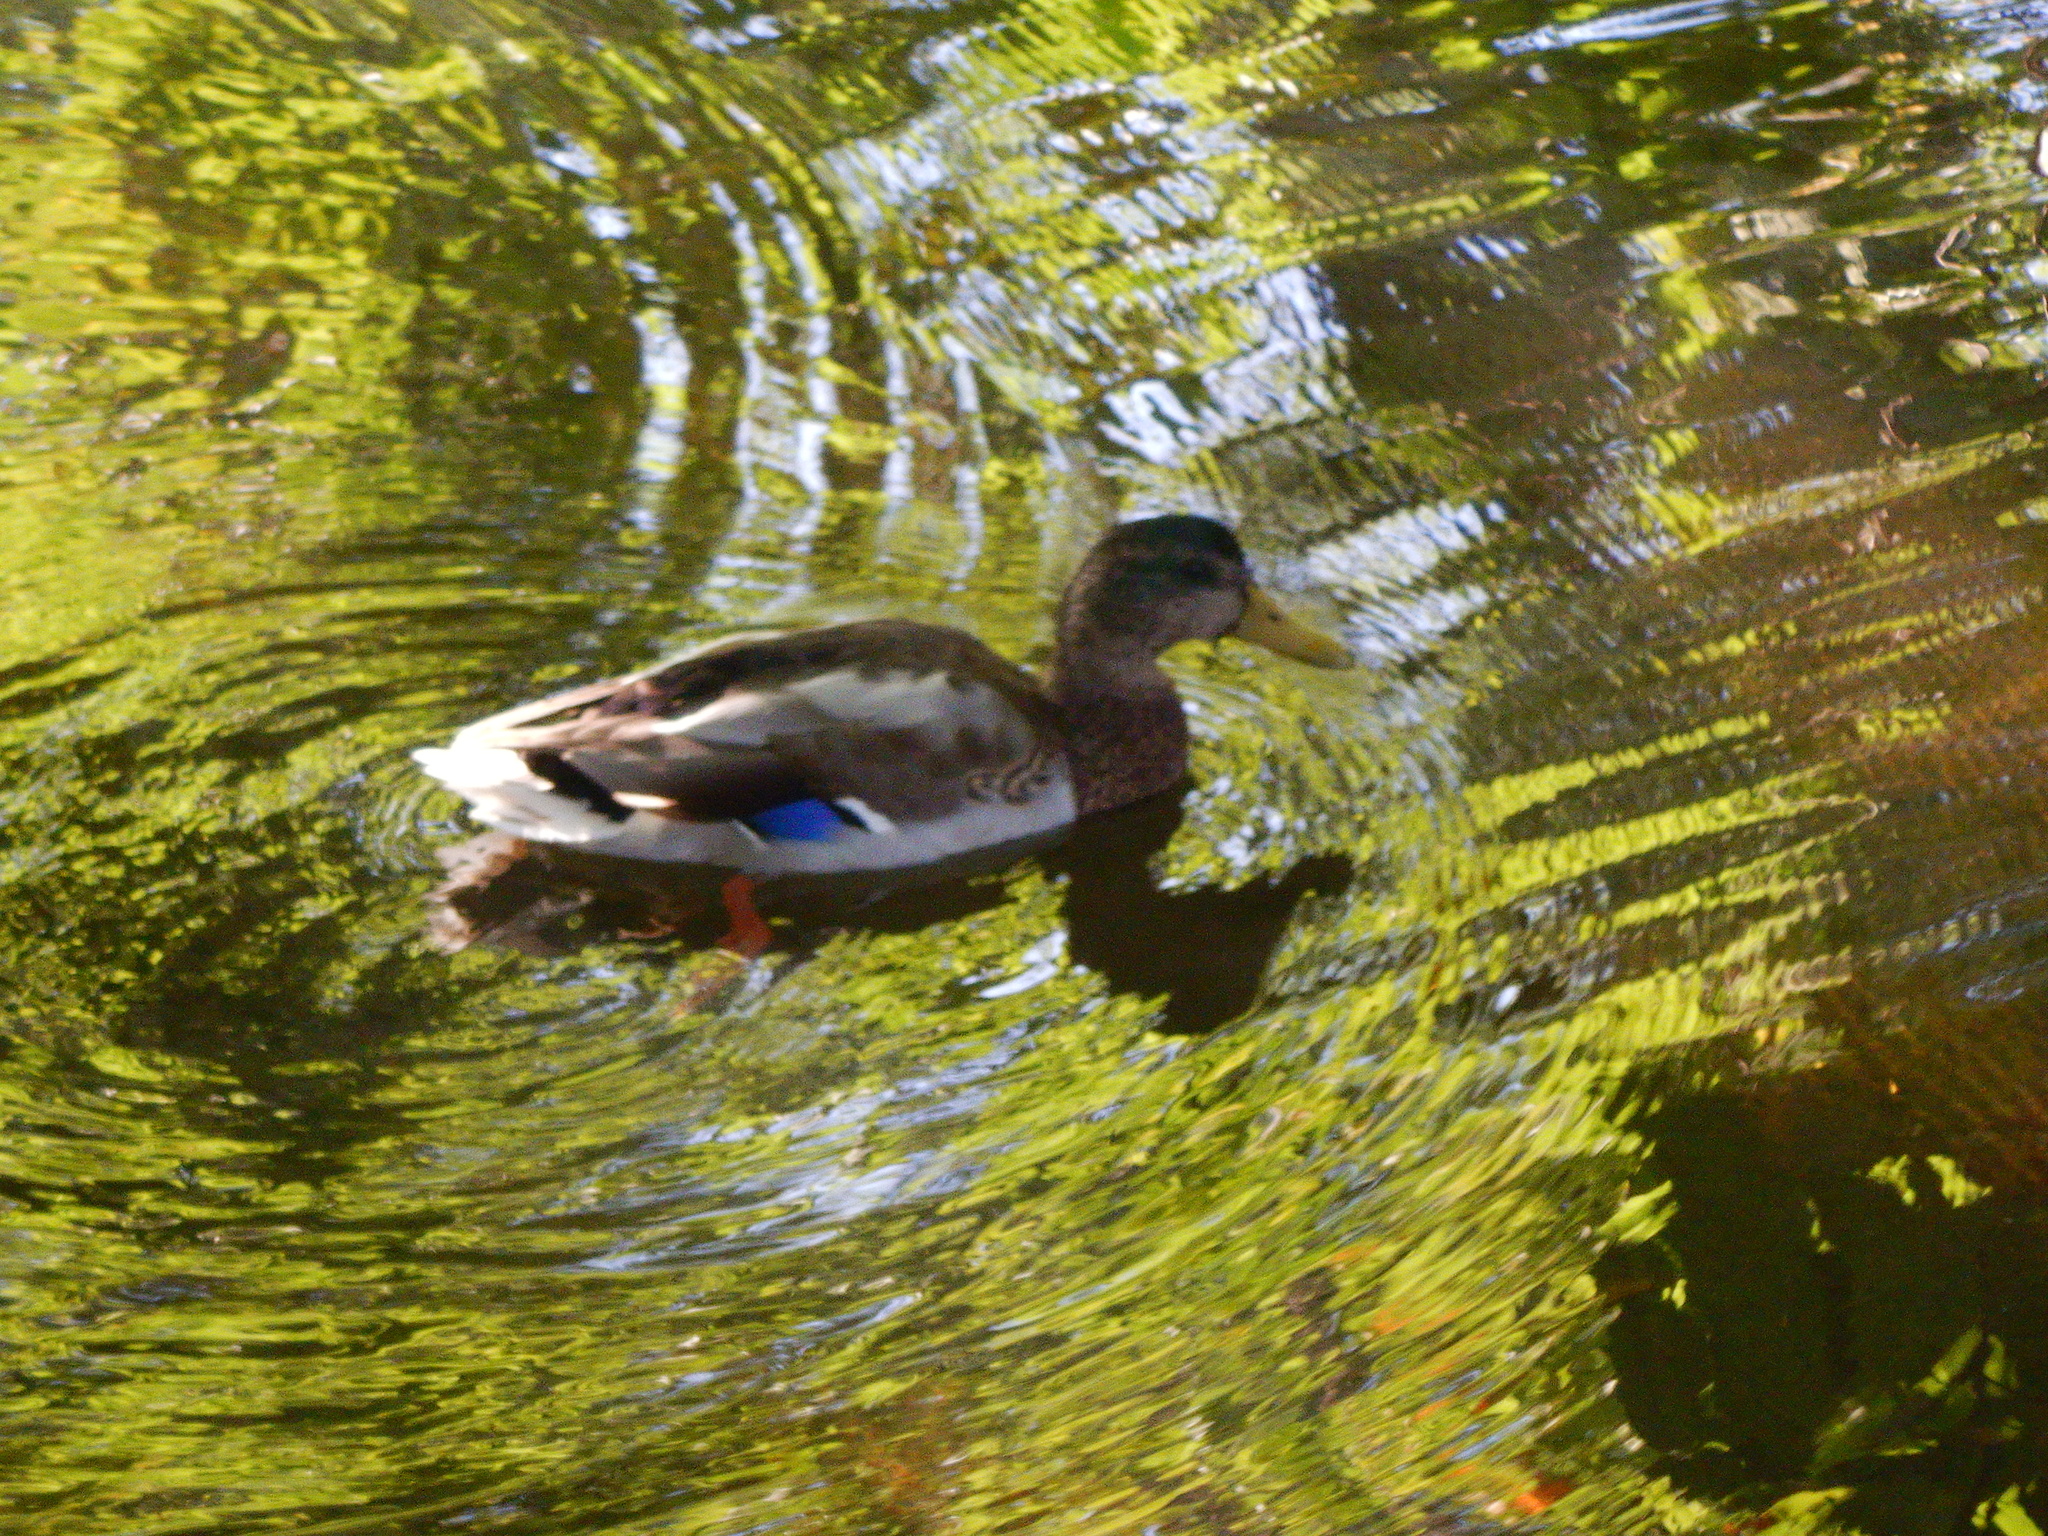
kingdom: Animalia
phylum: Chordata
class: Aves
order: Anseriformes
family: Anatidae
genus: Anas
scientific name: Anas platyrhynchos
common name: Mallard
